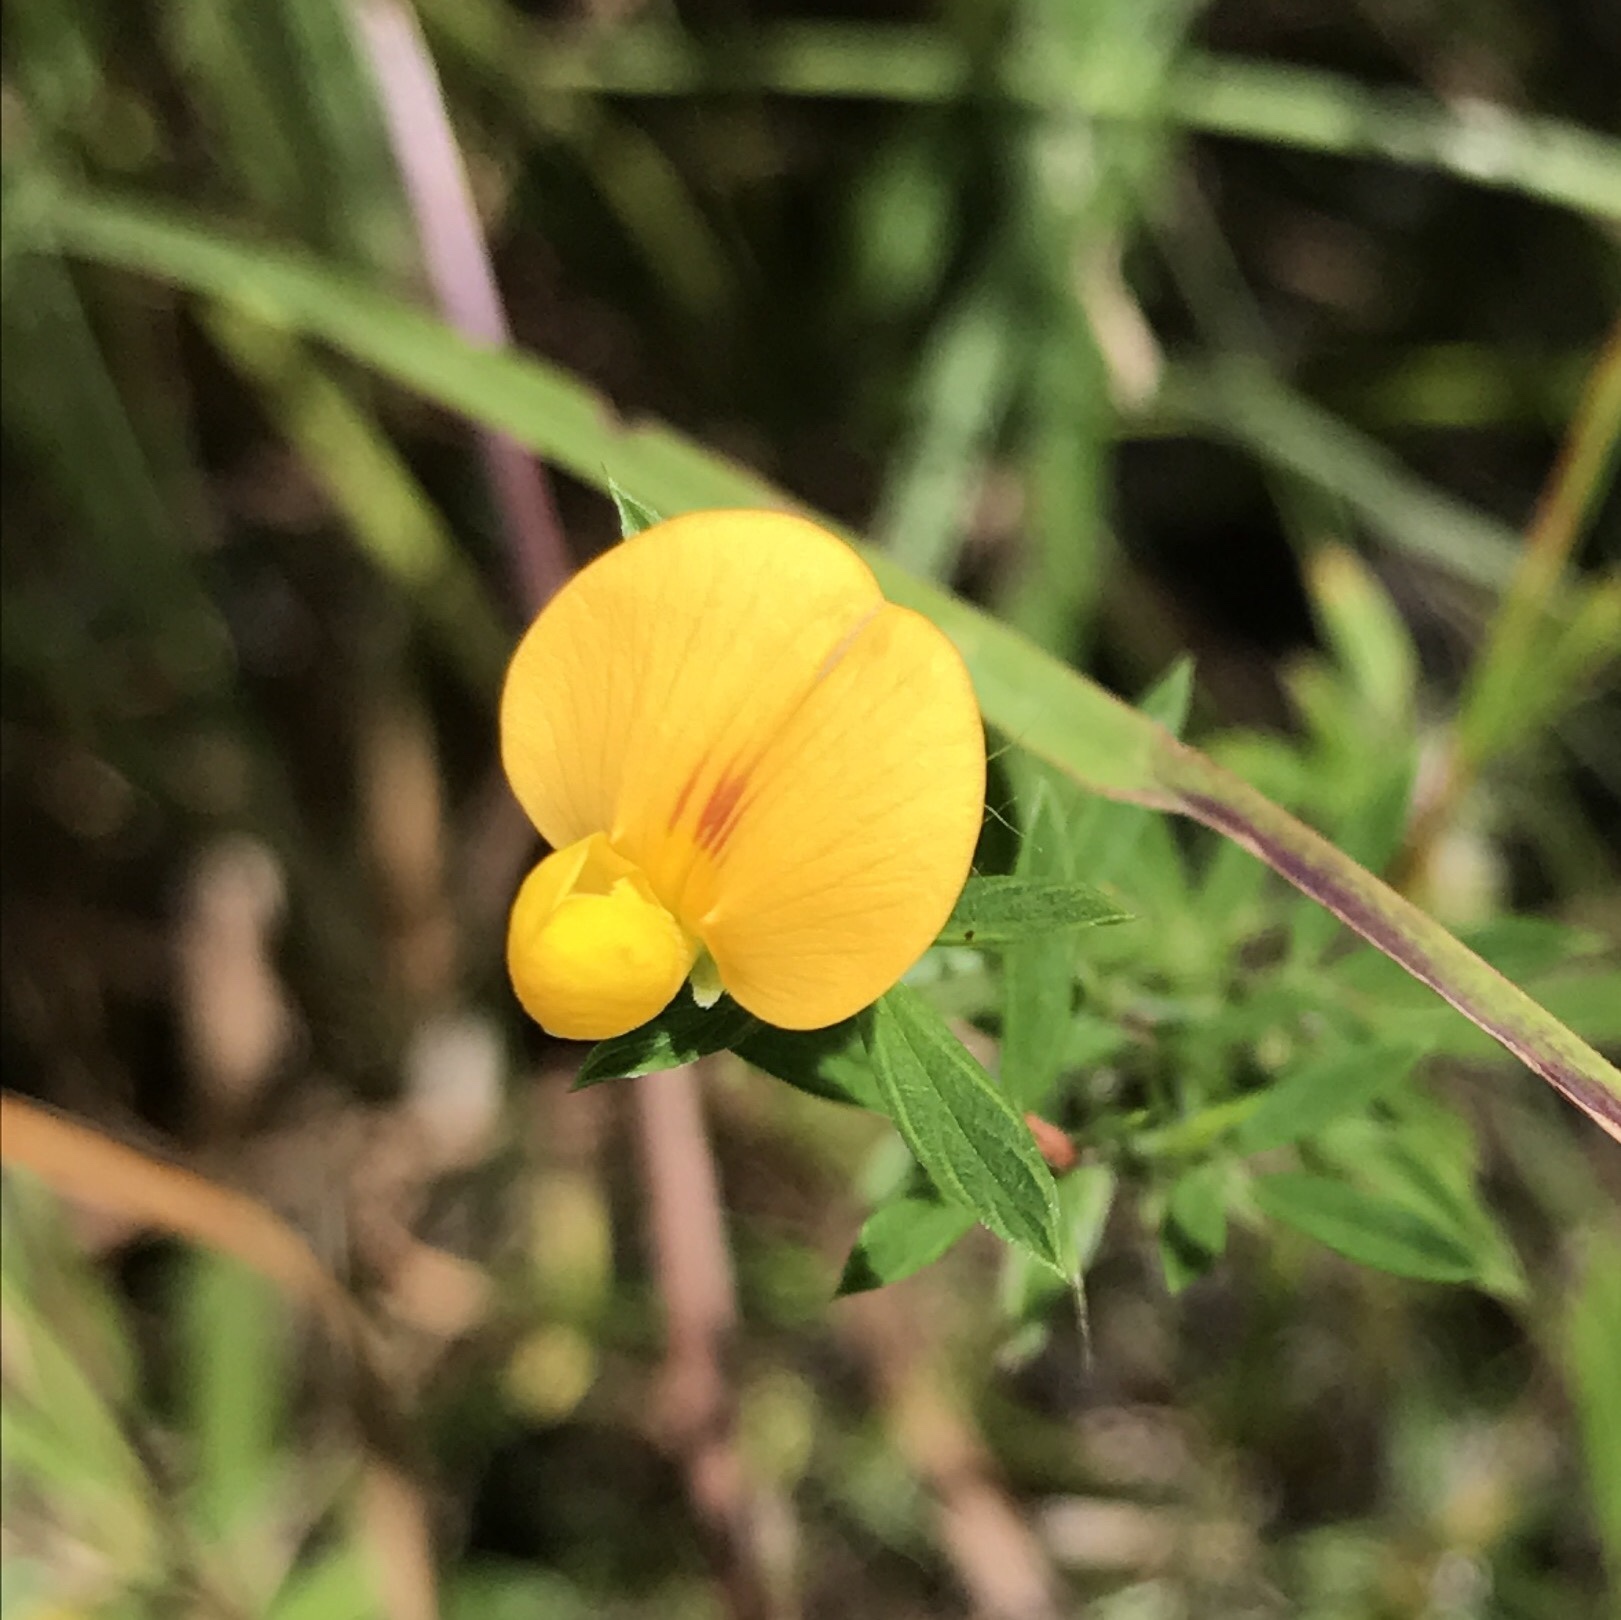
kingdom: Plantae
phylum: Tracheophyta
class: Magnoliopsida
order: Fabales
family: Fabaceae
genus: Stylosanthes
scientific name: Stylosanthes biflora
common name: Two-flower pencil-flower
